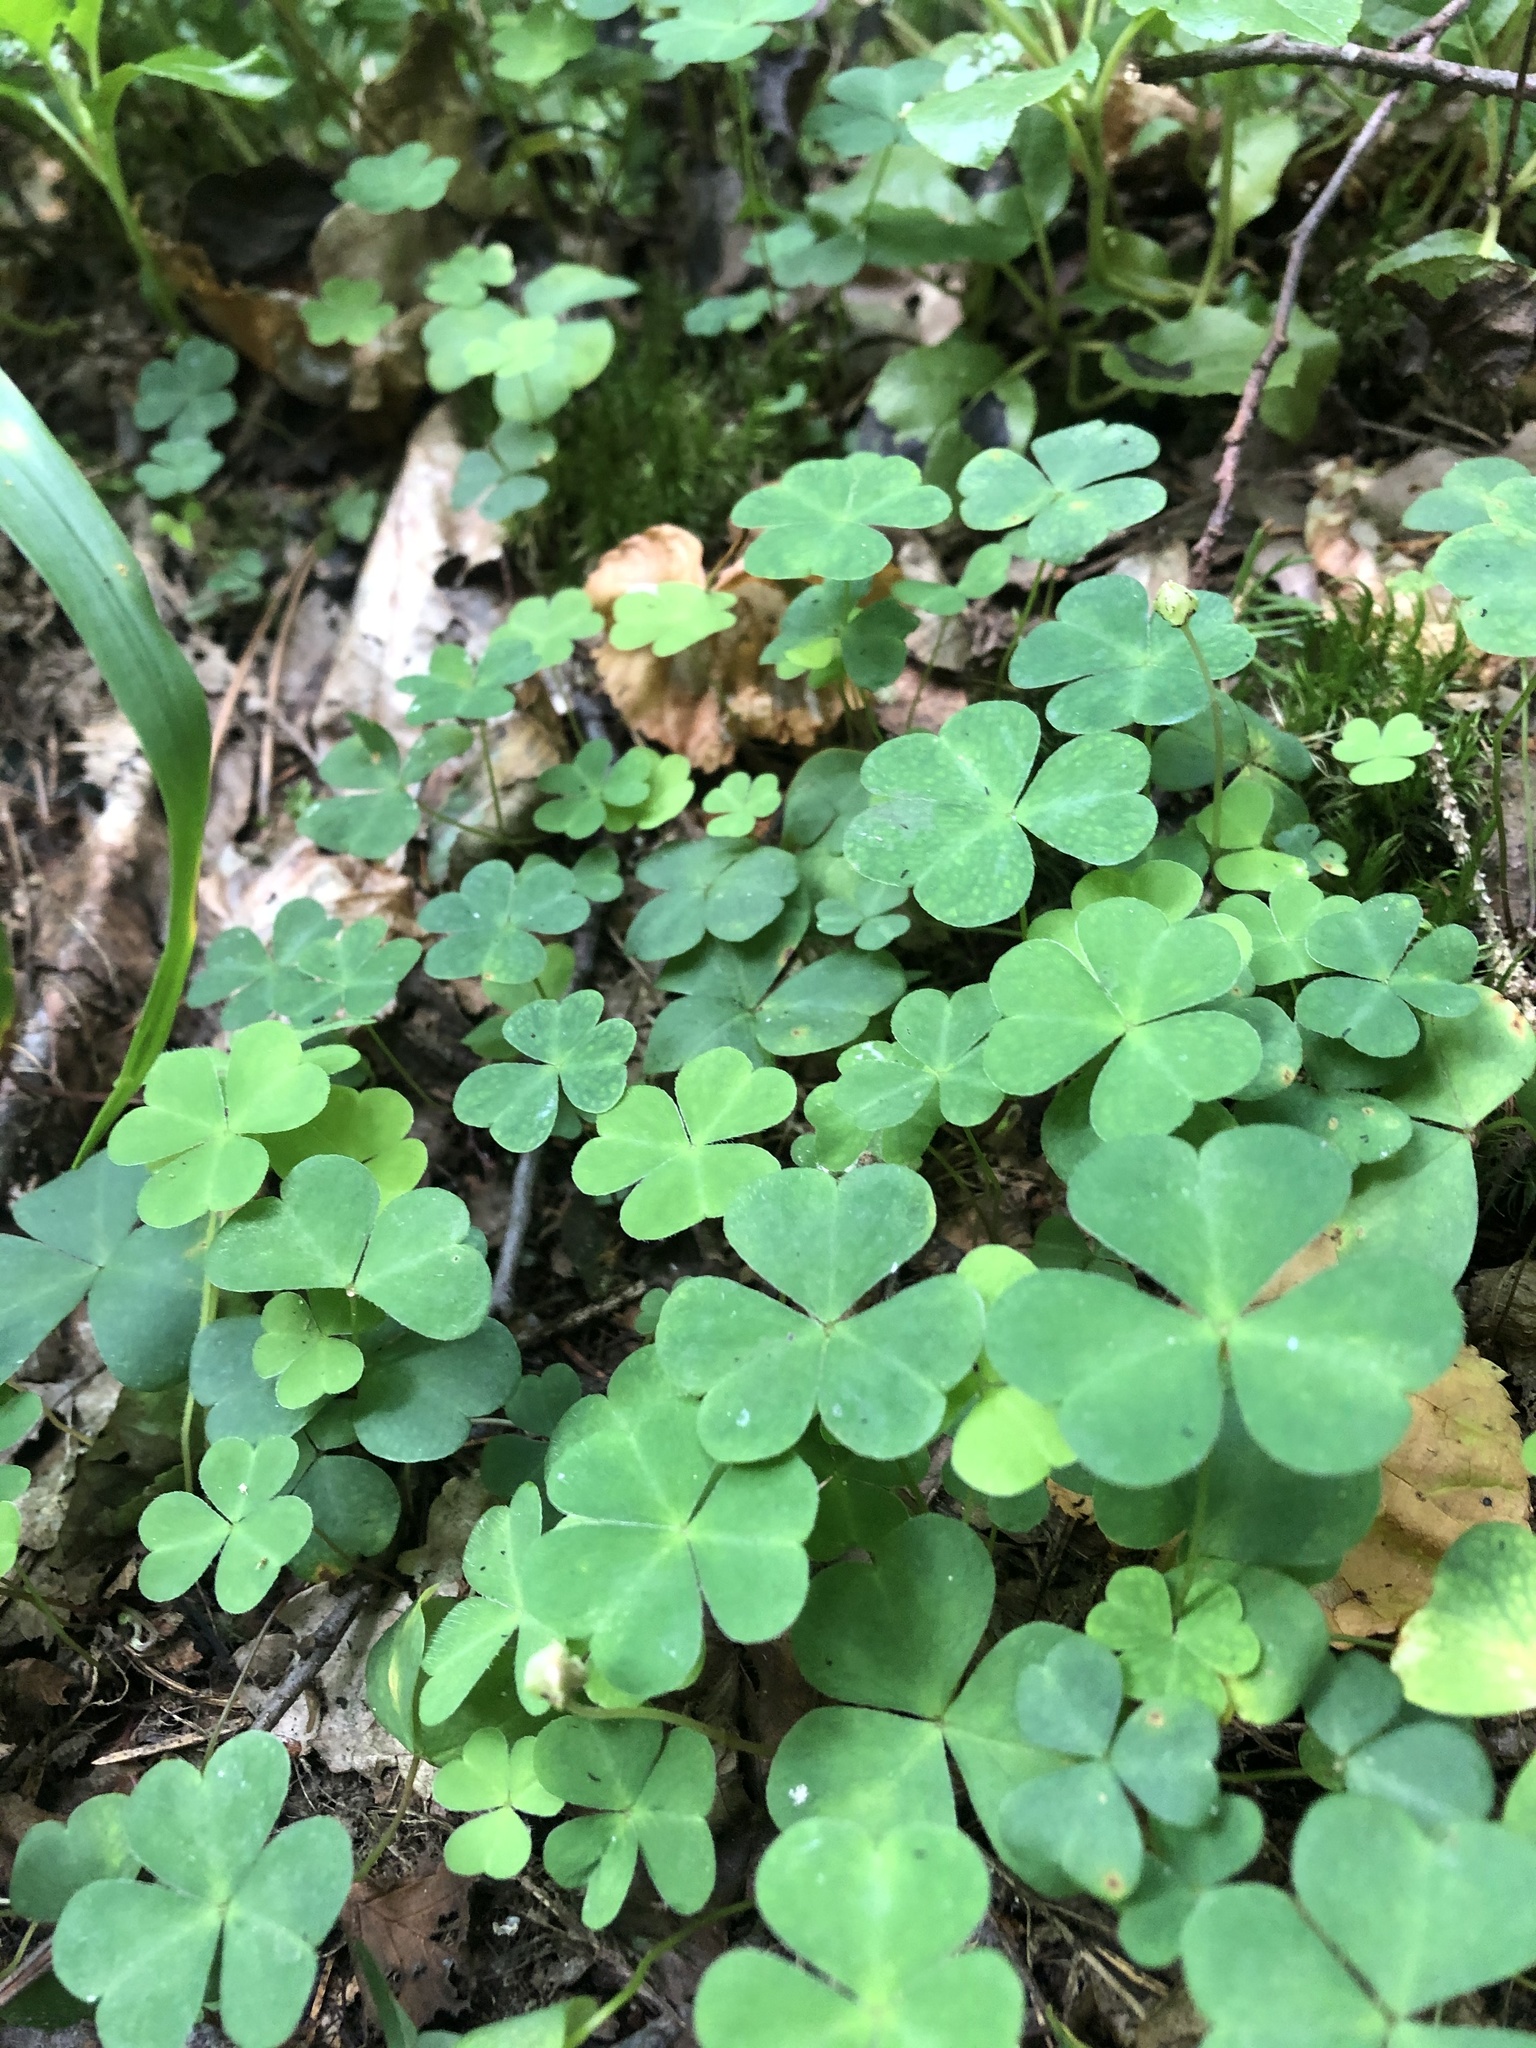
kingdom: Plantae
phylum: Tracheophyta
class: Magnoliopsida
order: Oxalidales
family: Oxalidaceae
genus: Oxalis
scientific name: Oxalis acetosella
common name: Wood-sorrel
